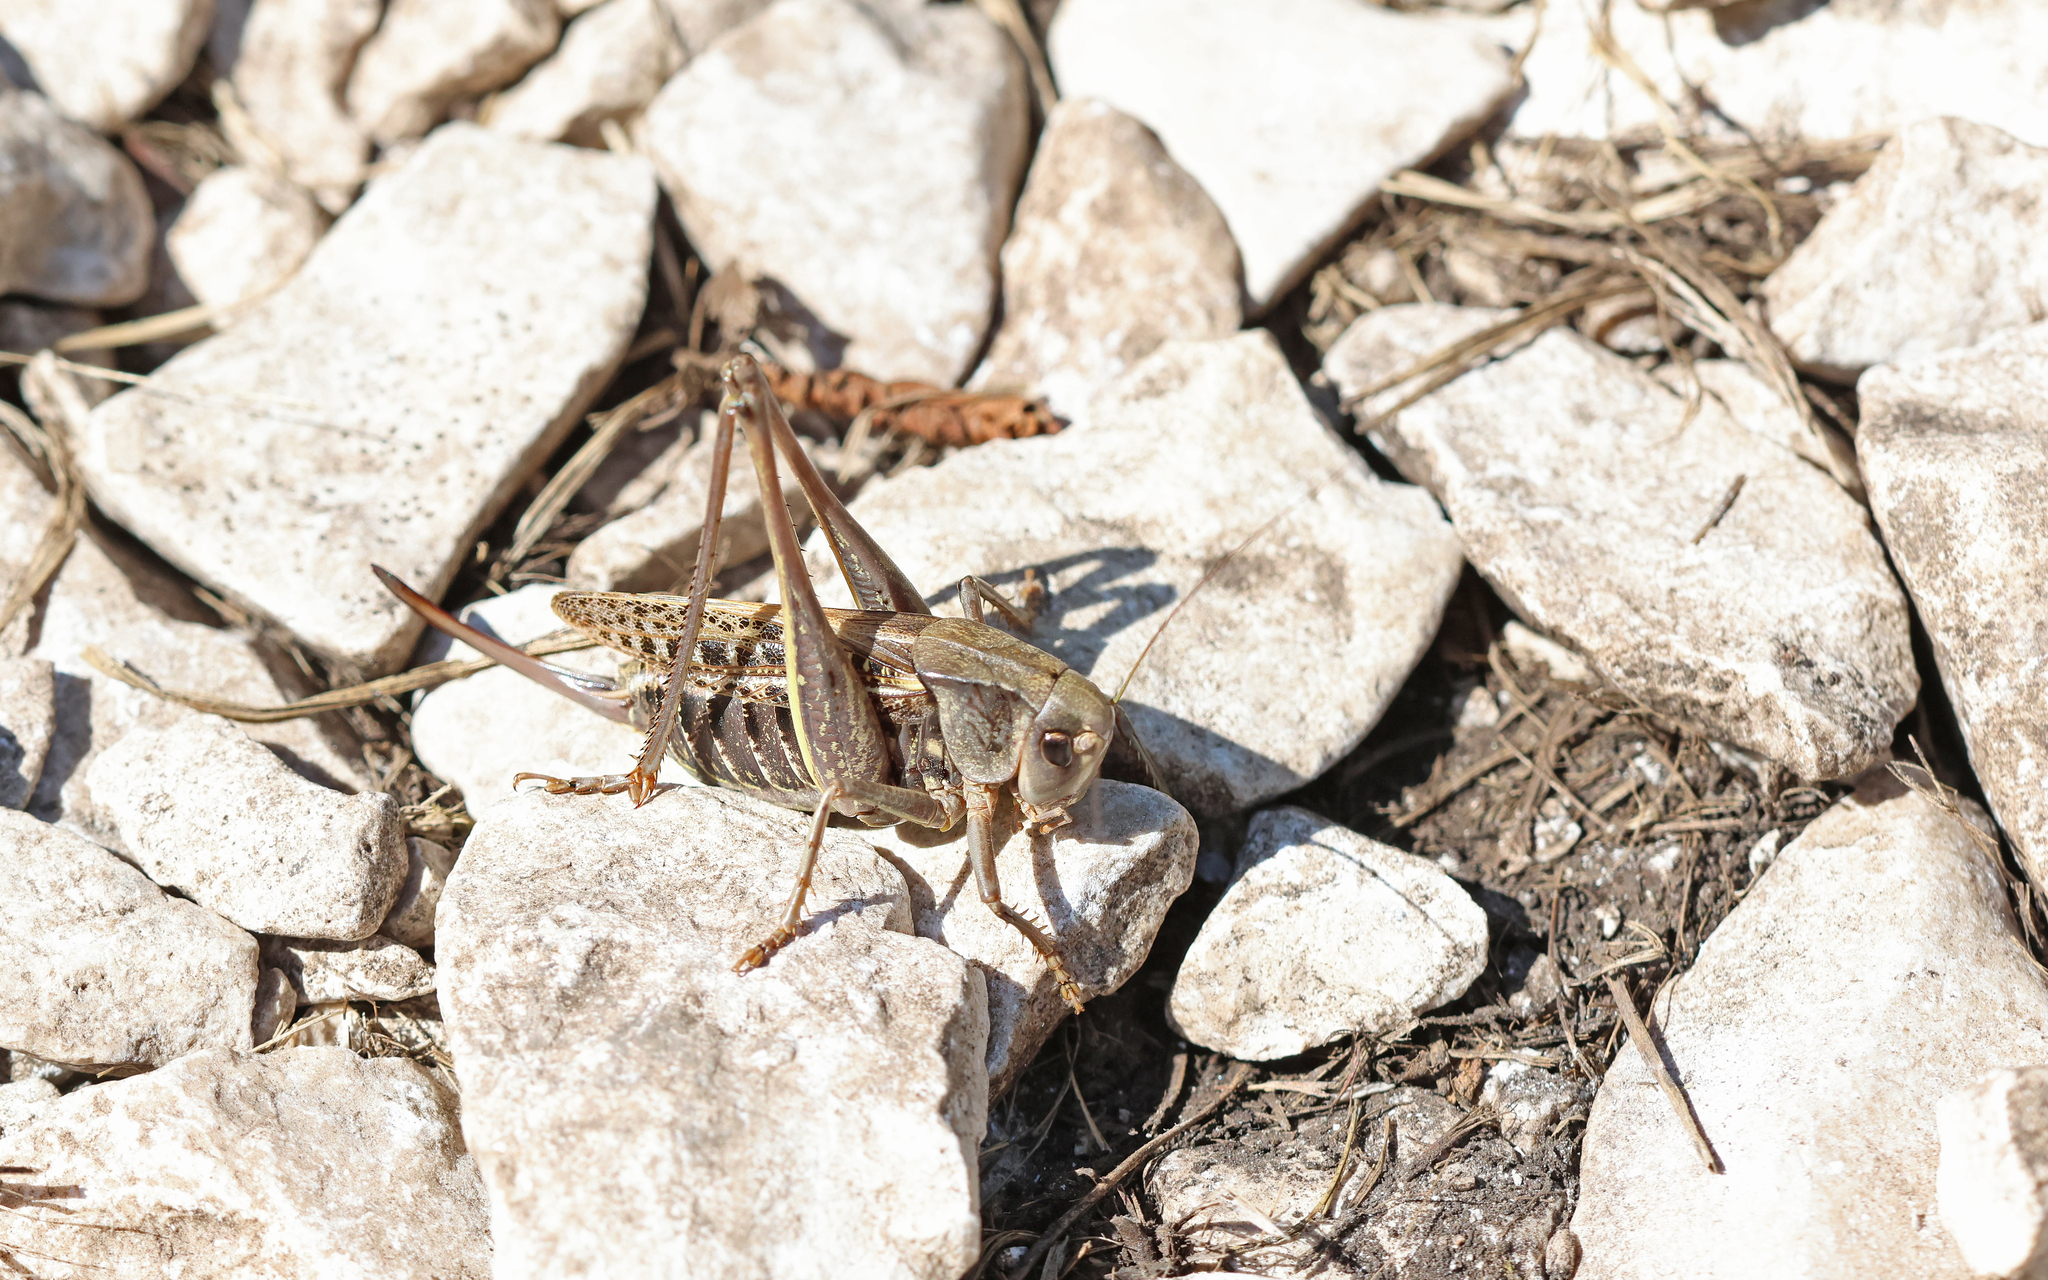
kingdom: Animalia
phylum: Arthropoda
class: Insecta
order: Orthoptera
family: Tettigoniidae
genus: Decticus
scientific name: Decticus verrucivorus
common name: Wart-biter
